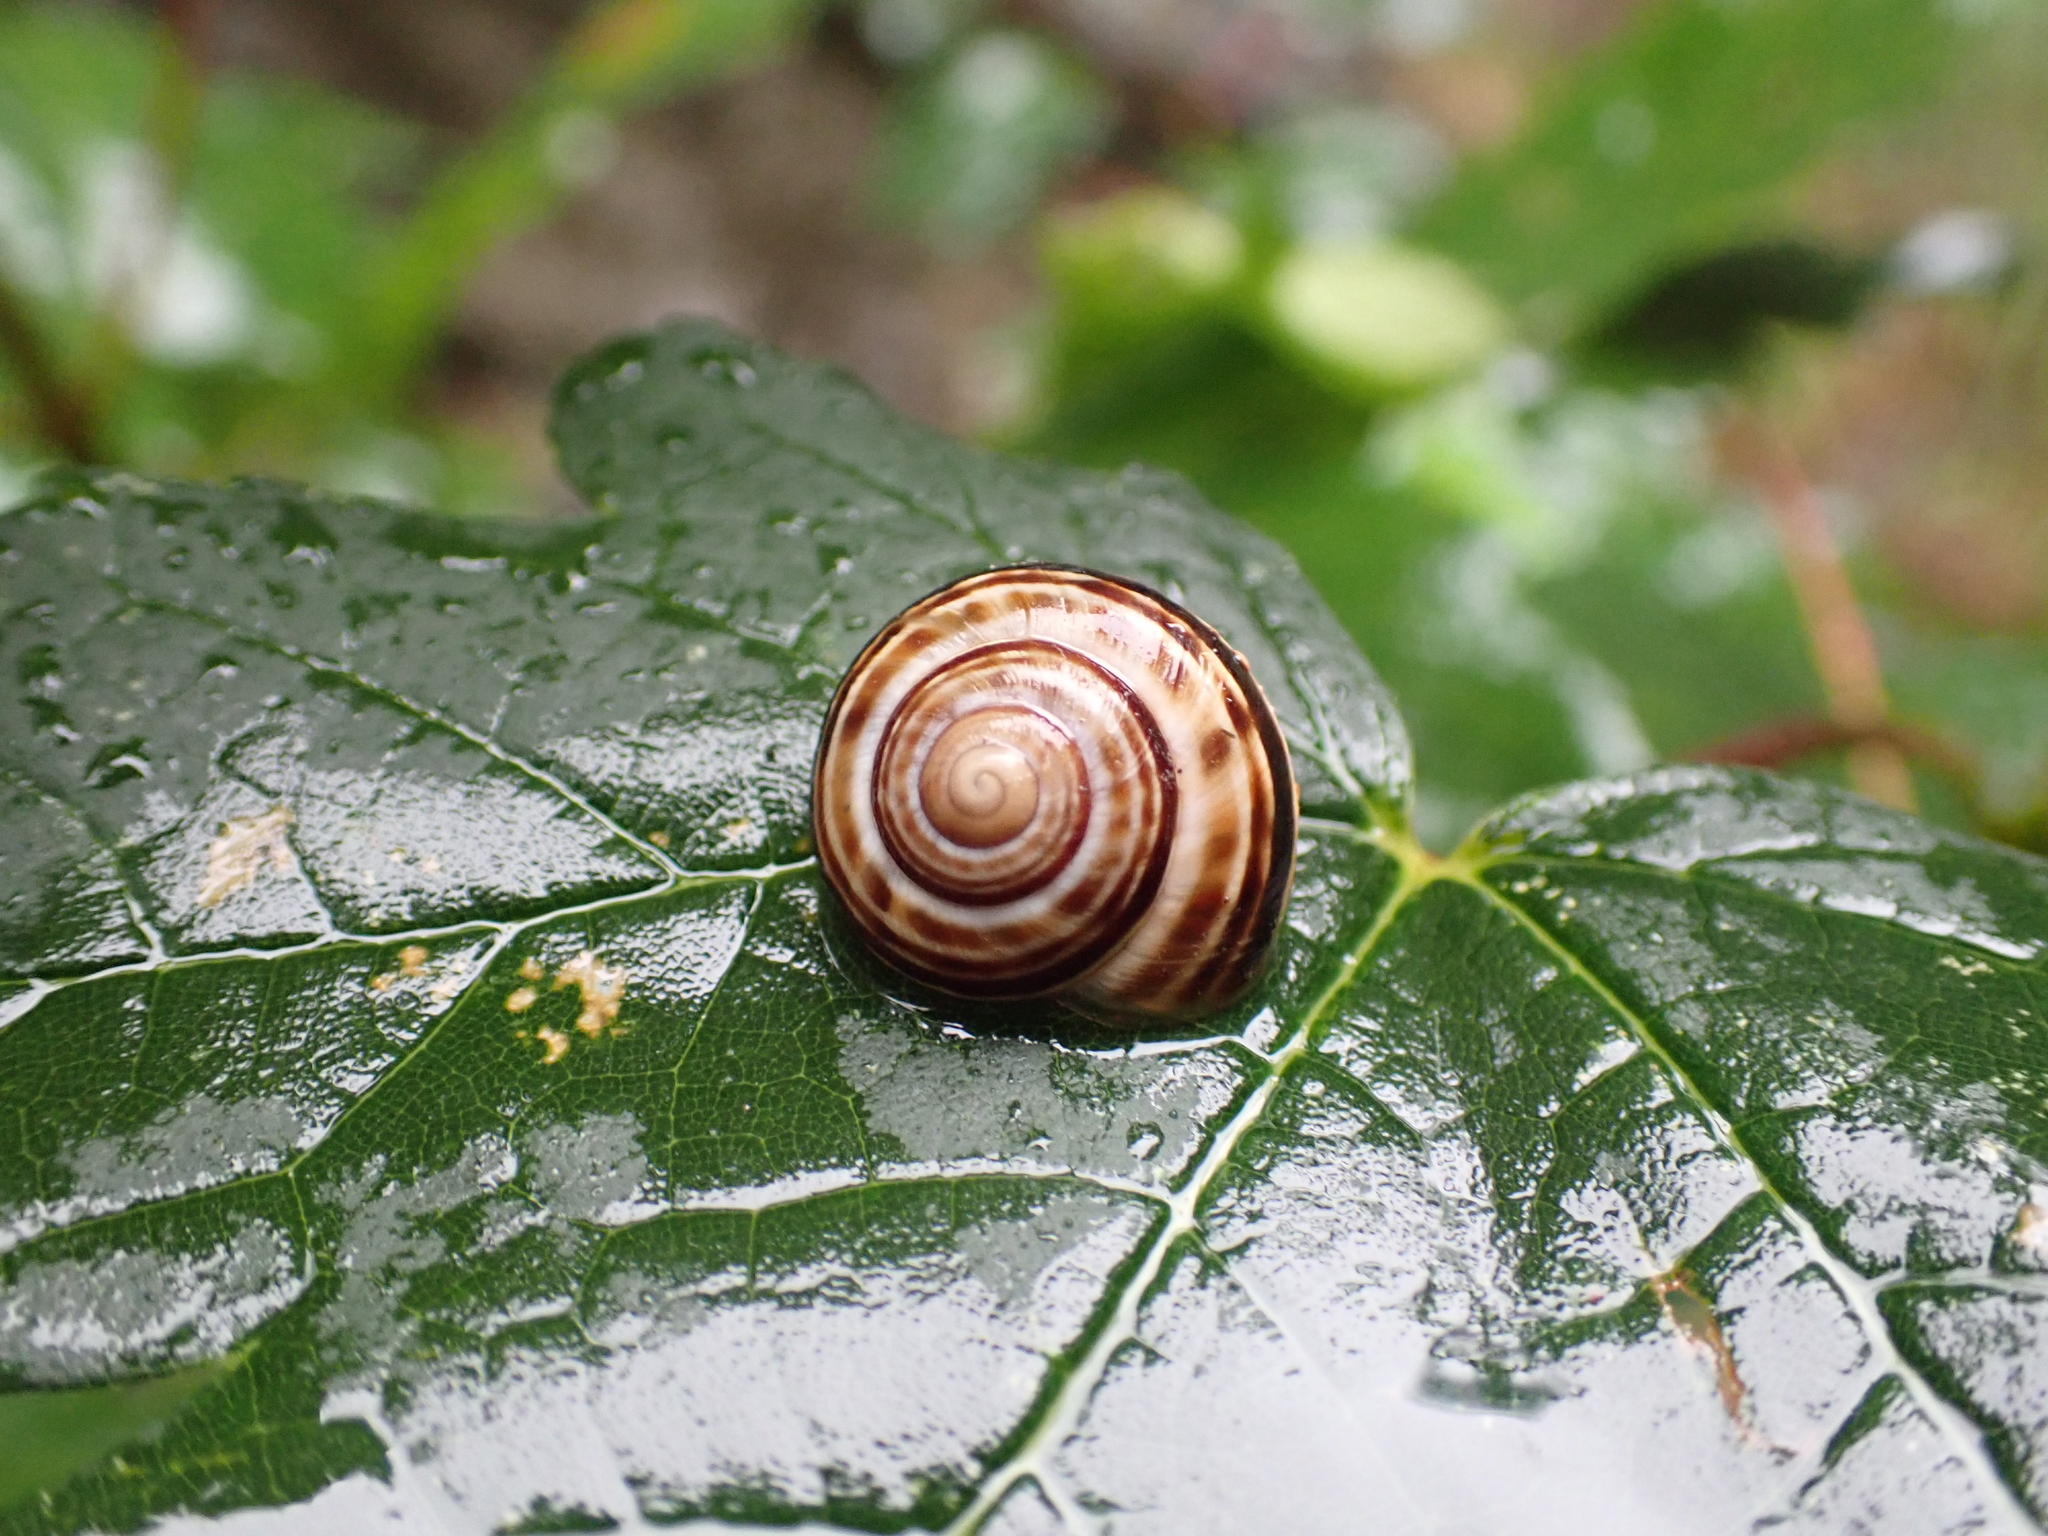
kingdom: Animalia
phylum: Mollusca
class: Gastropoda
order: Stylommatophora
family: Helicidae
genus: Macularia
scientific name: Macularia sylvatica
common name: Hélice sylvatique
